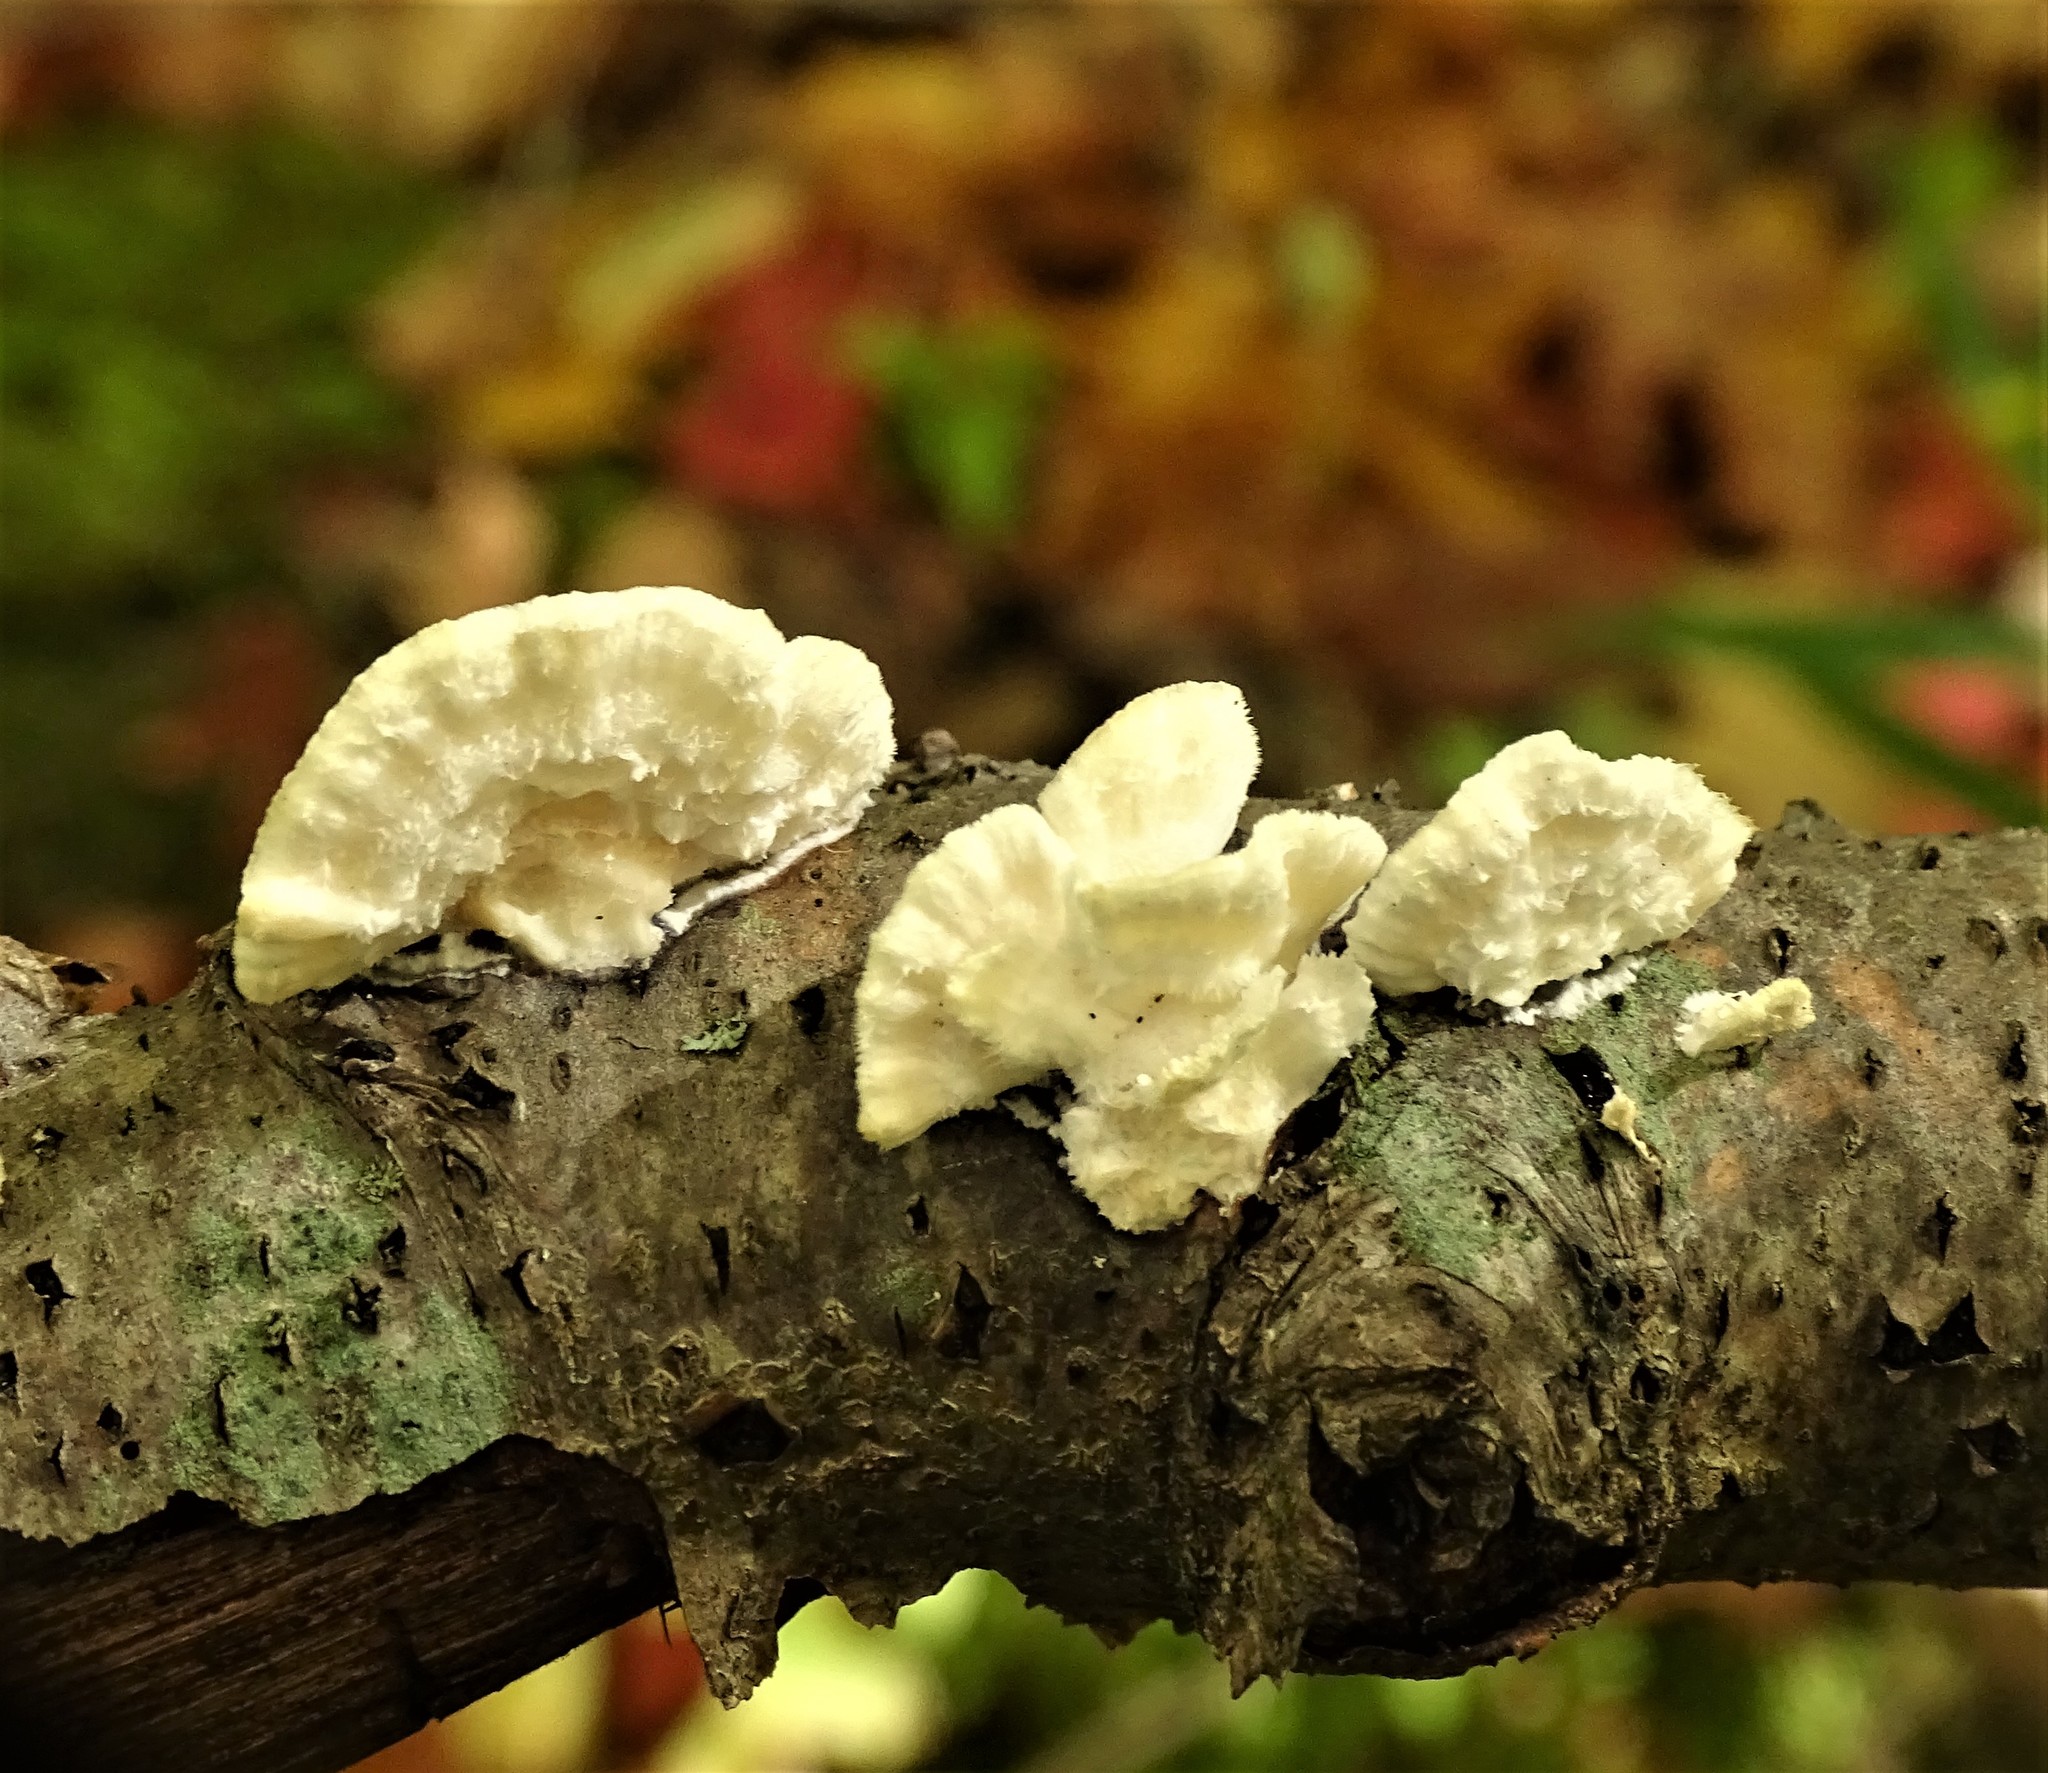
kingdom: Fungi
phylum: Basidiomycota
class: Agaricomycetes
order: Polyporales
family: Polyporaceae
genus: Trametes
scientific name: Trametes hirsuta
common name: Hairy bracket
